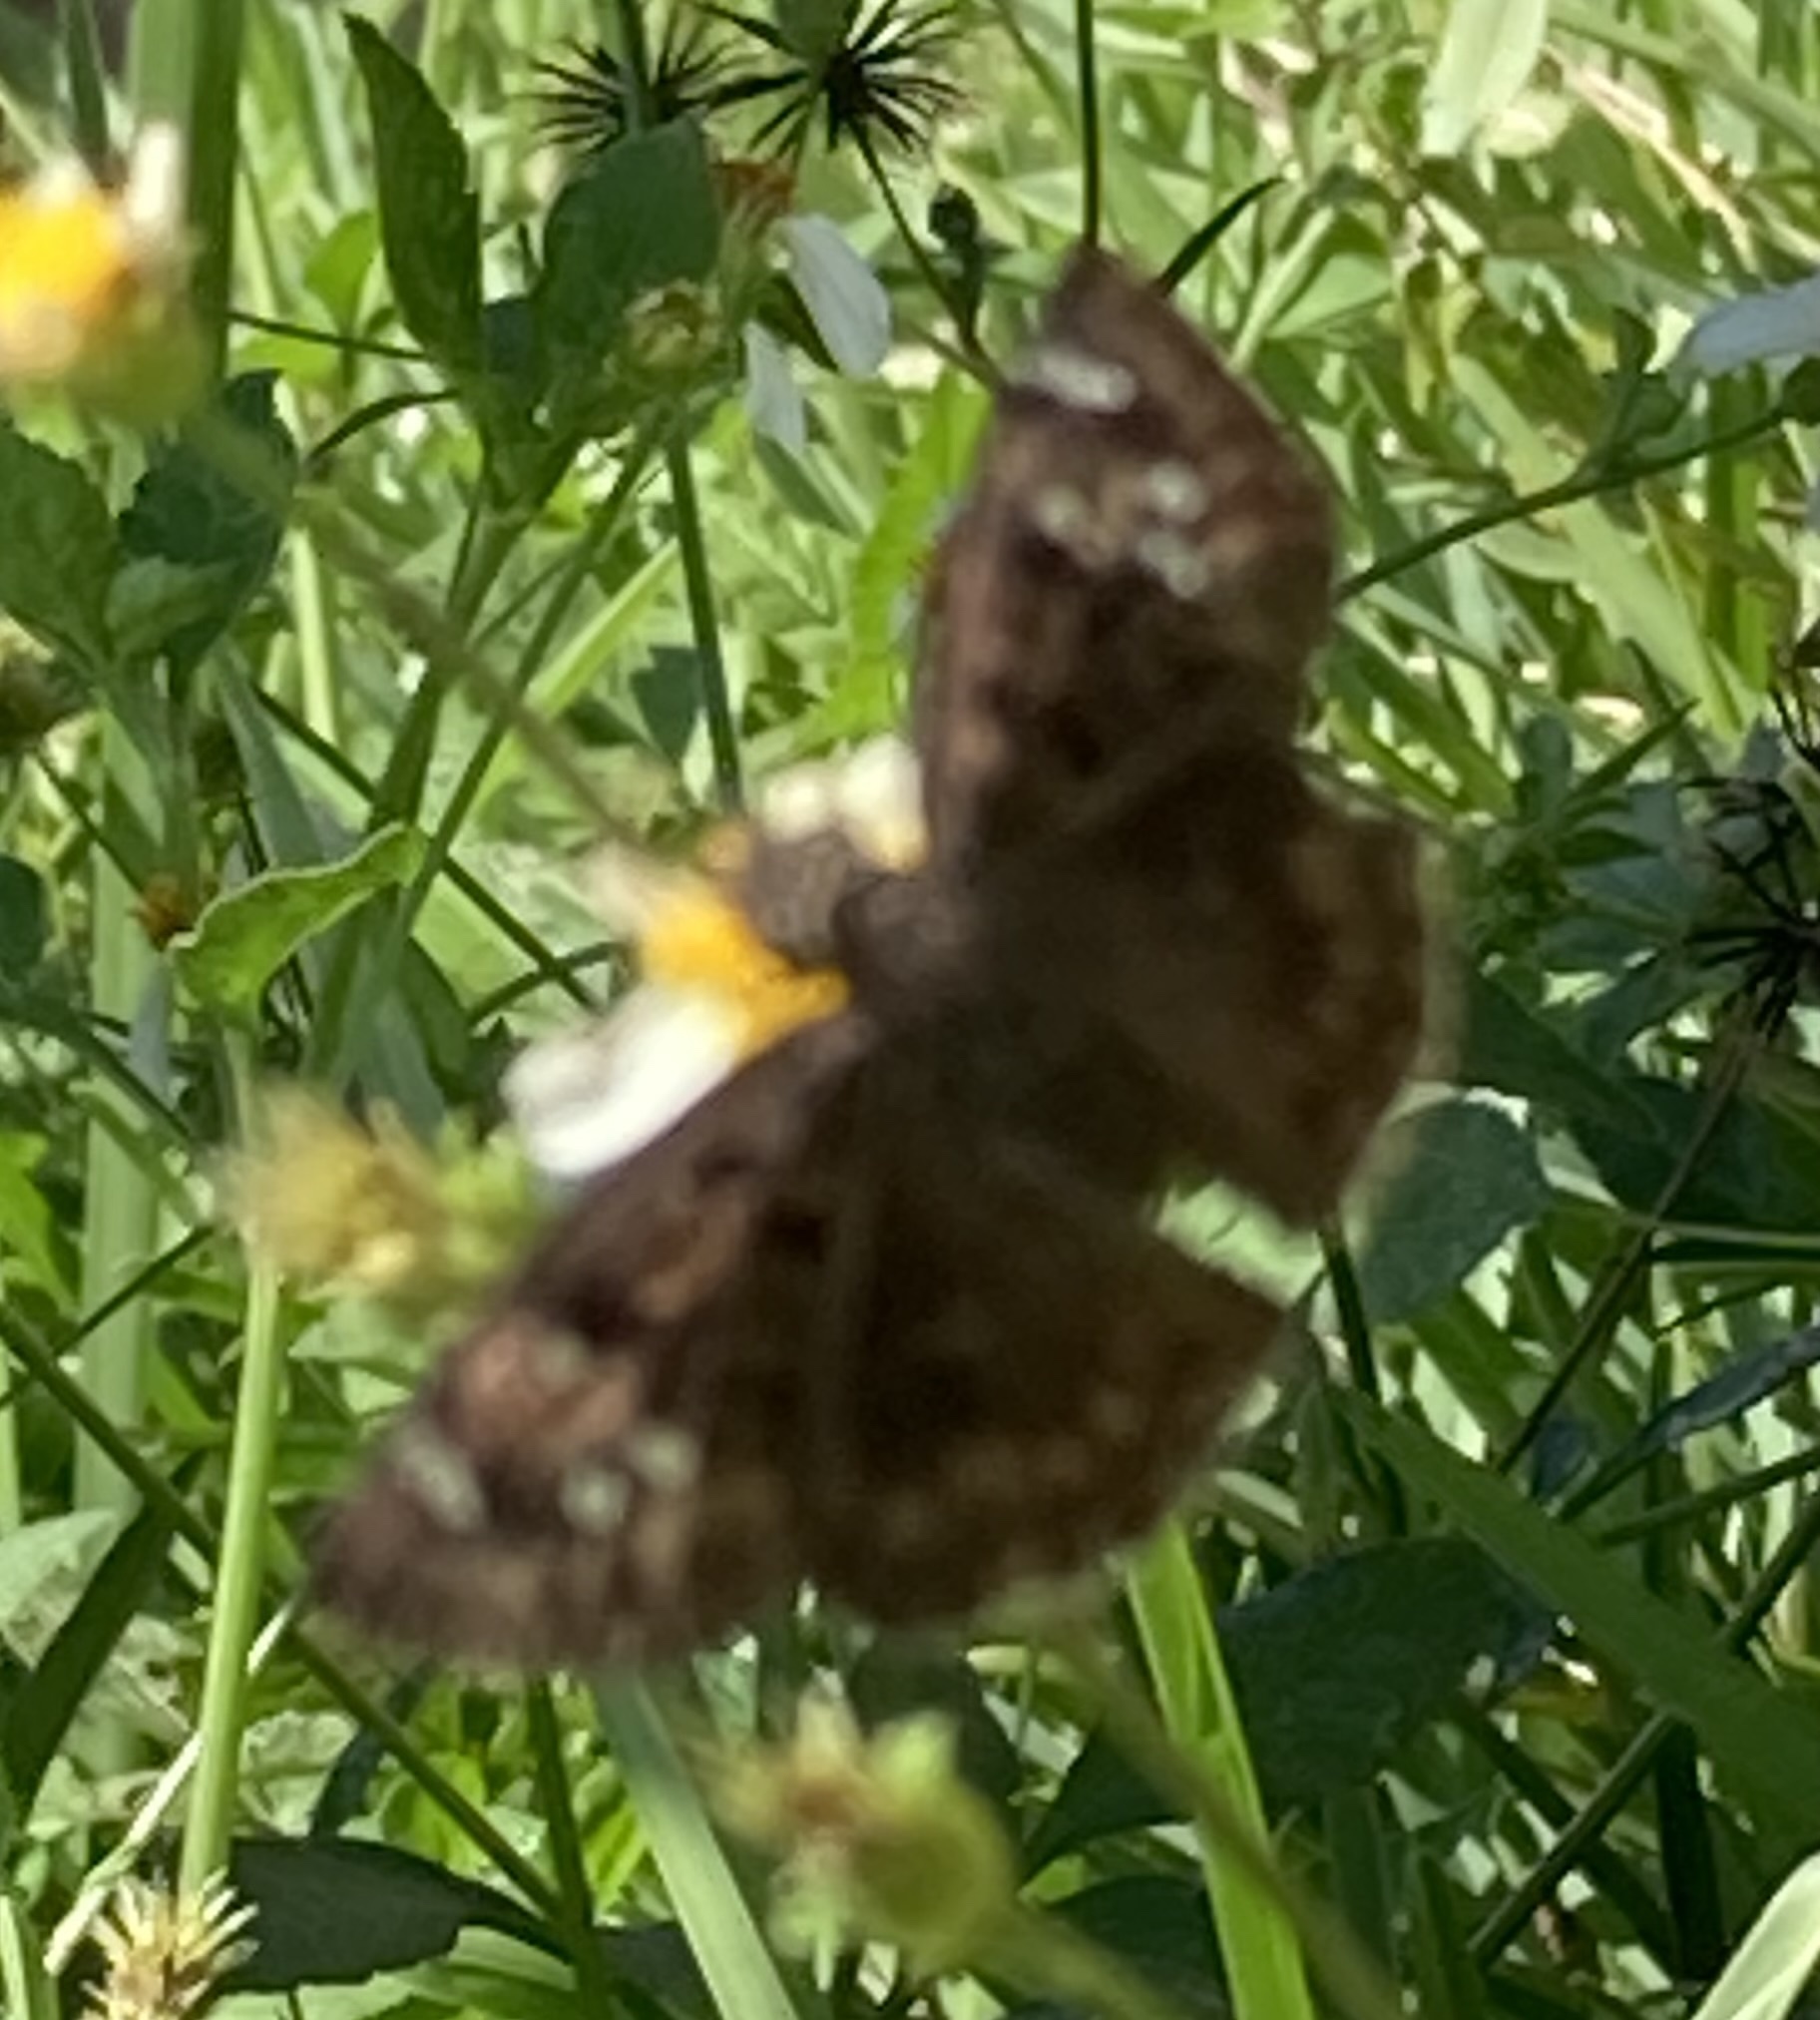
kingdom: Animalia
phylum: Arthropoda
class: Insecta
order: Lepidoptera
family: Hesperiidae
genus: Erynnis
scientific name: Erynnis horatius
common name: Horace's duskywing
